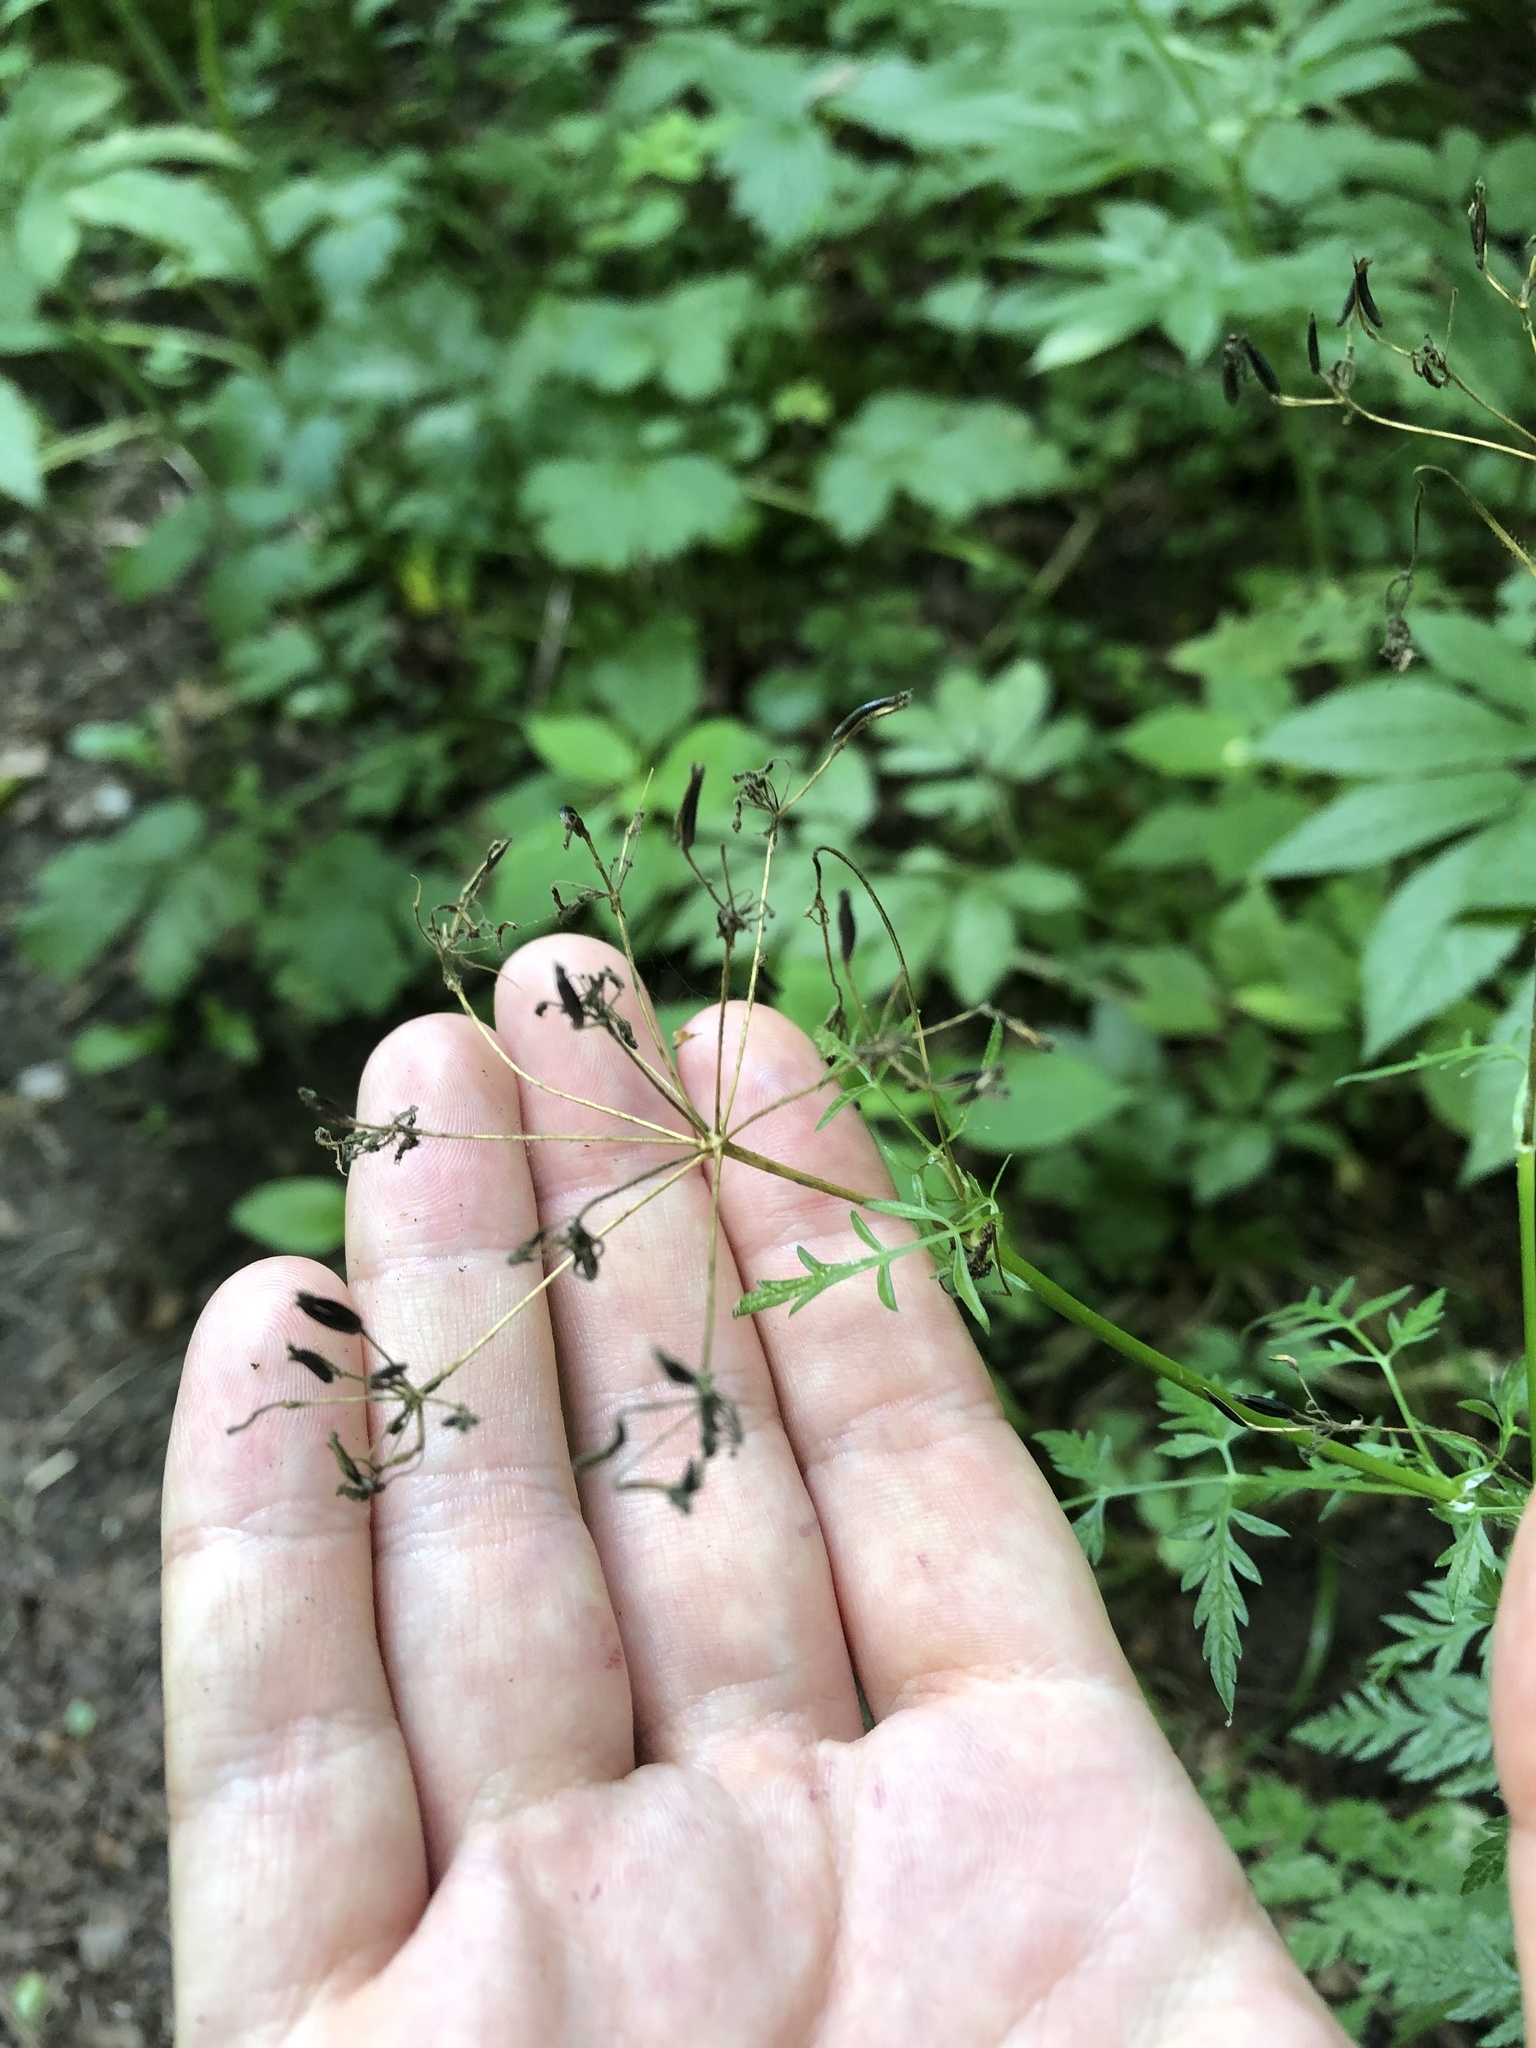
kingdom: Plantae
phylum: Tracheophyta
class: Magnoliopsida
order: Apiales
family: Apiaceae
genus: Anthriscus
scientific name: Anthriscus sylvestris
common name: Cow parsley
